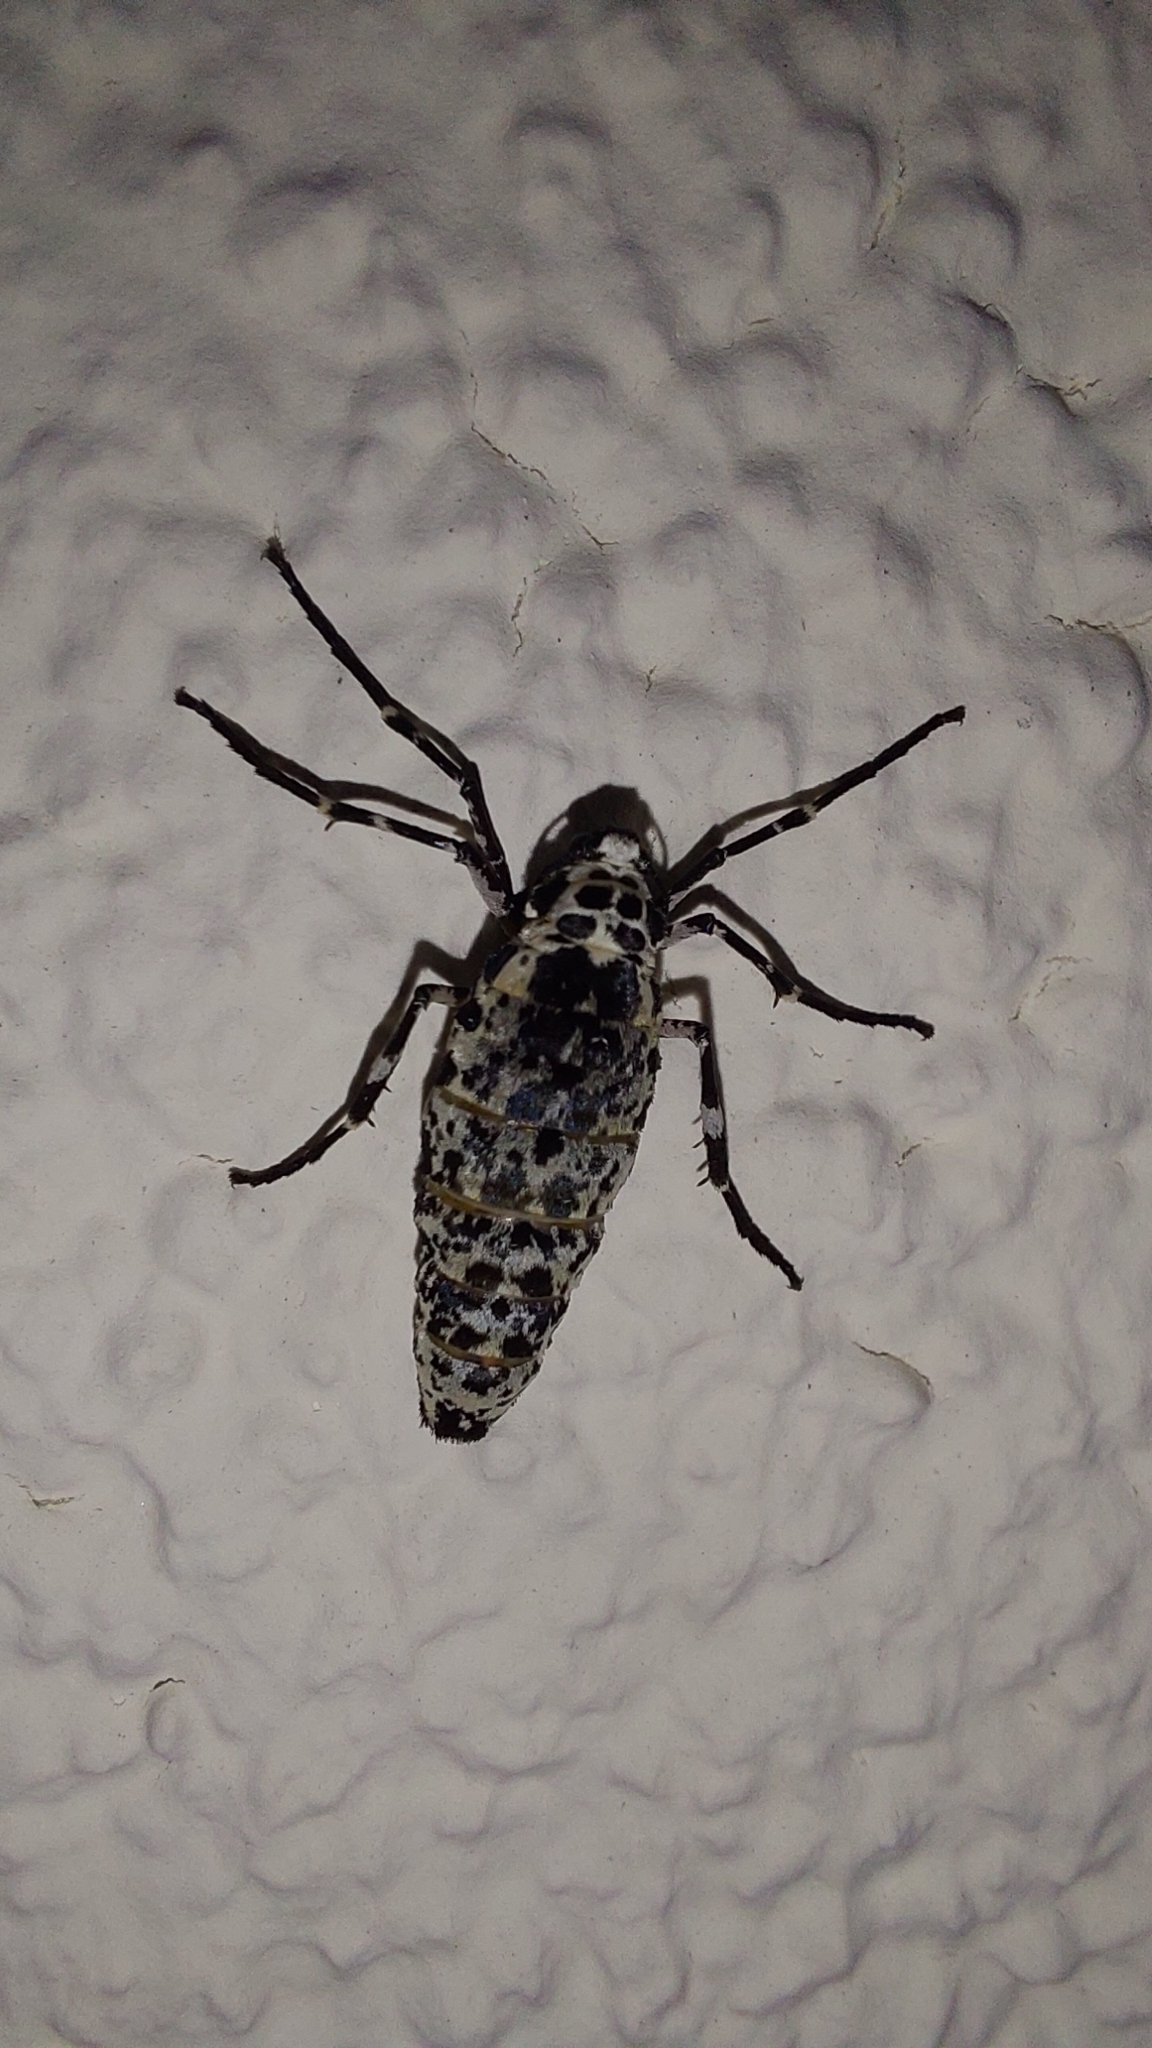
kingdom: Animalia
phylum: Arthropoda
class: Insecta
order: Lepidoptera
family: Geometridae
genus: Erannis
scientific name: Erannis defoliaria
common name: Mottled umber
